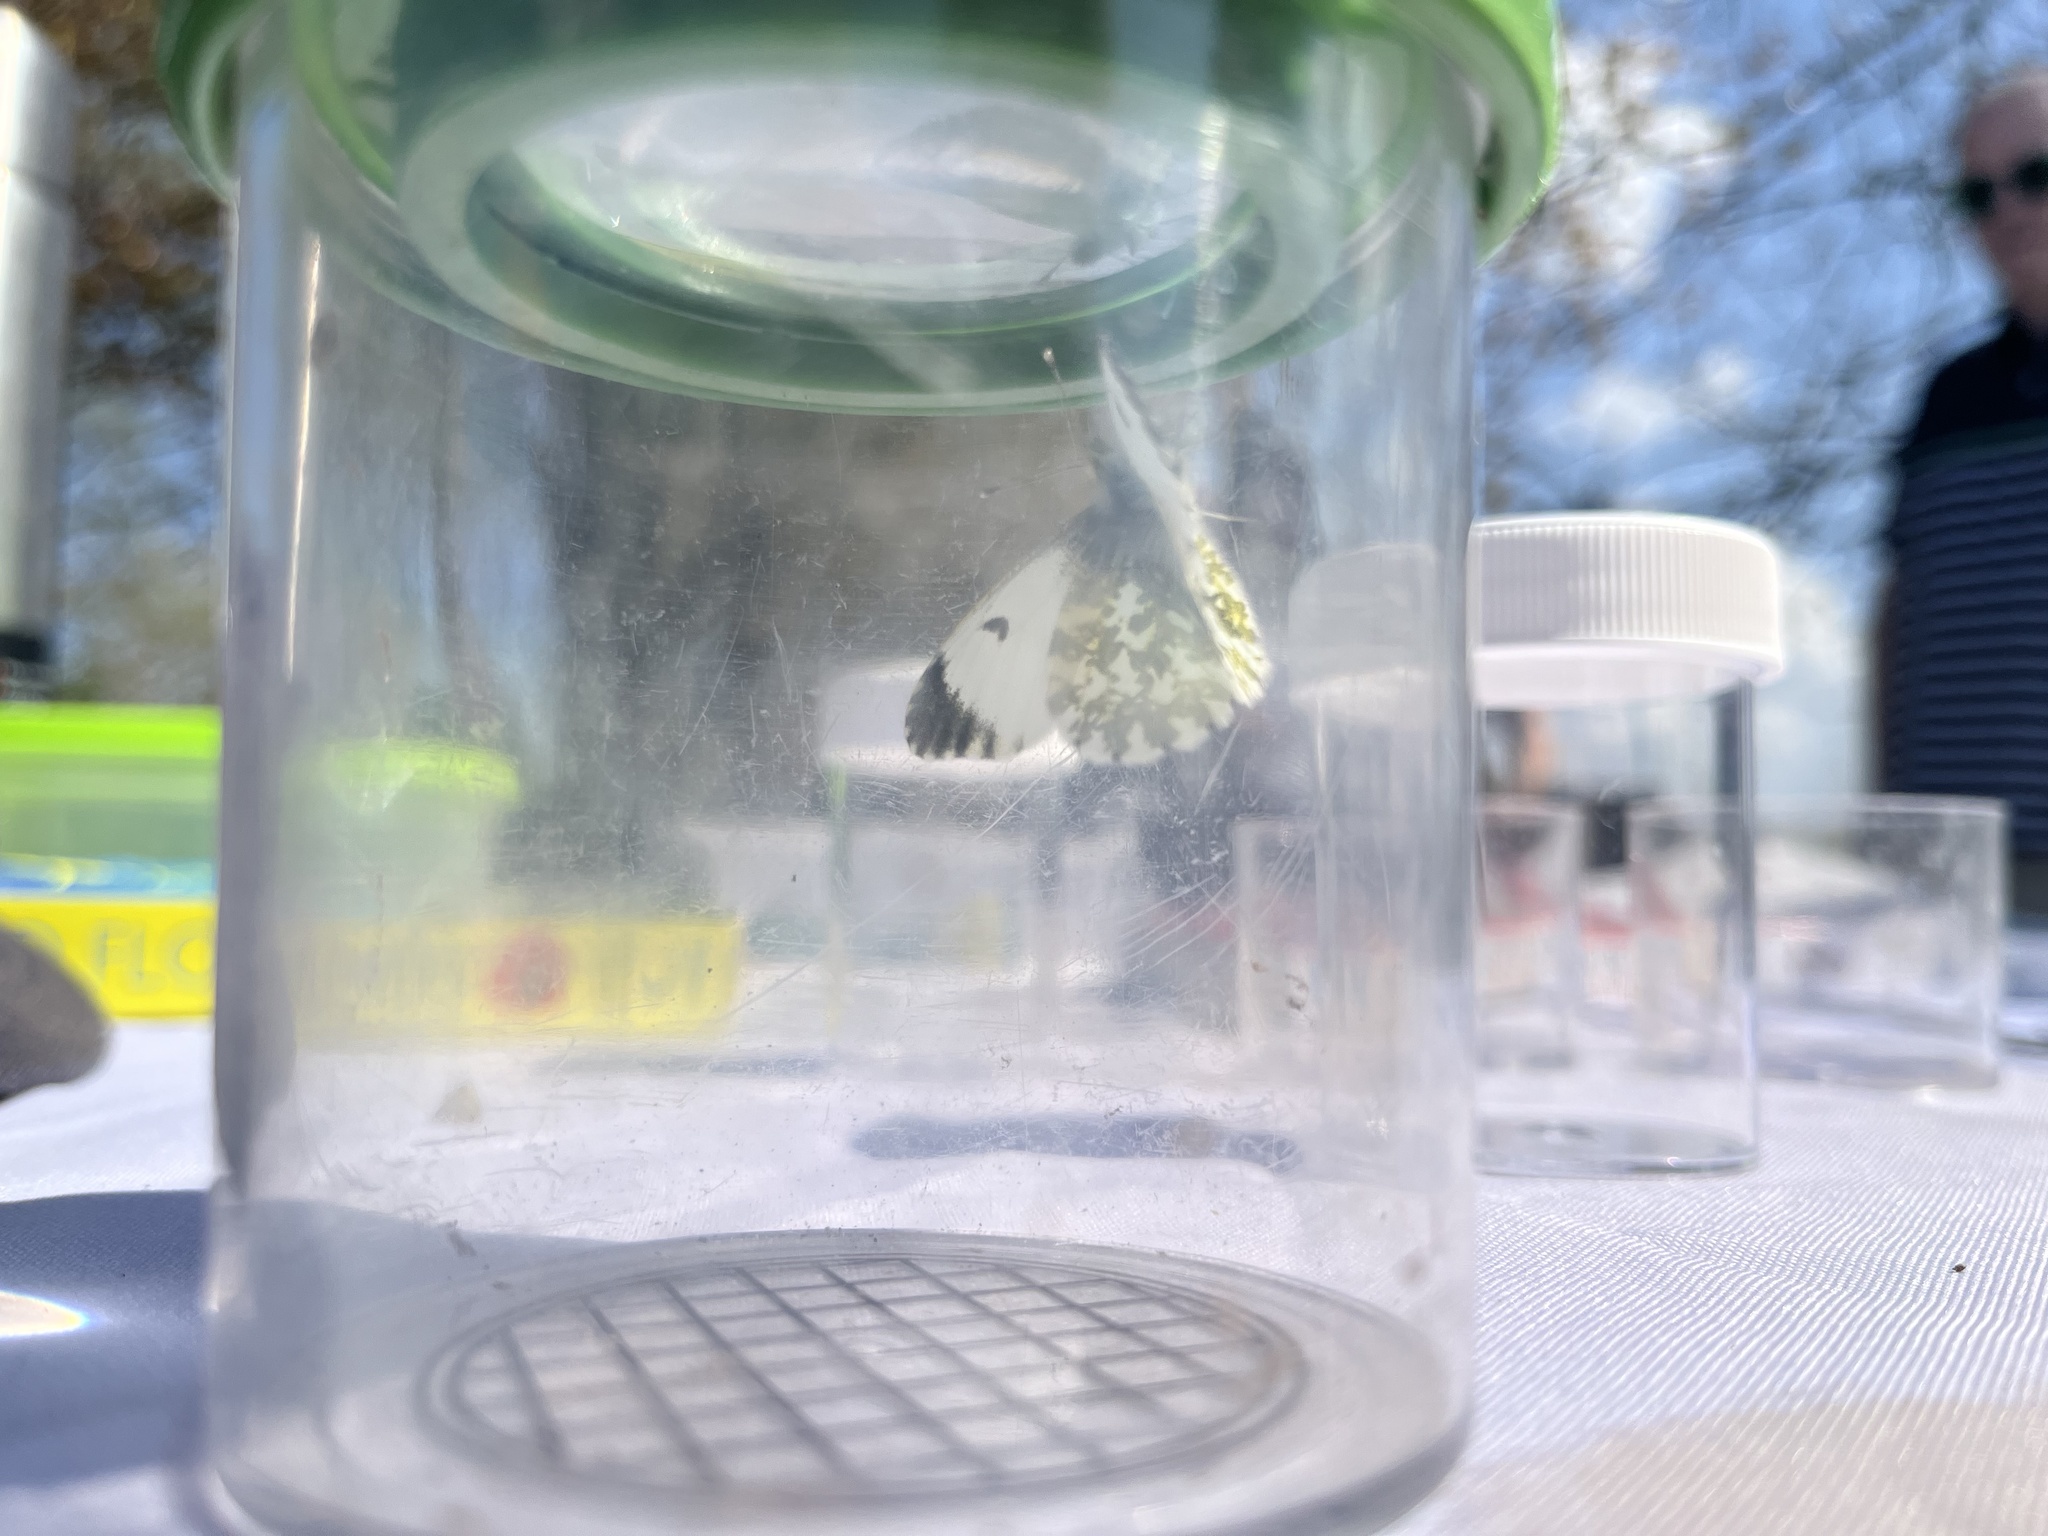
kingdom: Animalia
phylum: Arthropoda
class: Insecta
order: Lepidoptera
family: Pieridae
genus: Anthocharis
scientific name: Anthocharis cardamines
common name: Orange-tip
